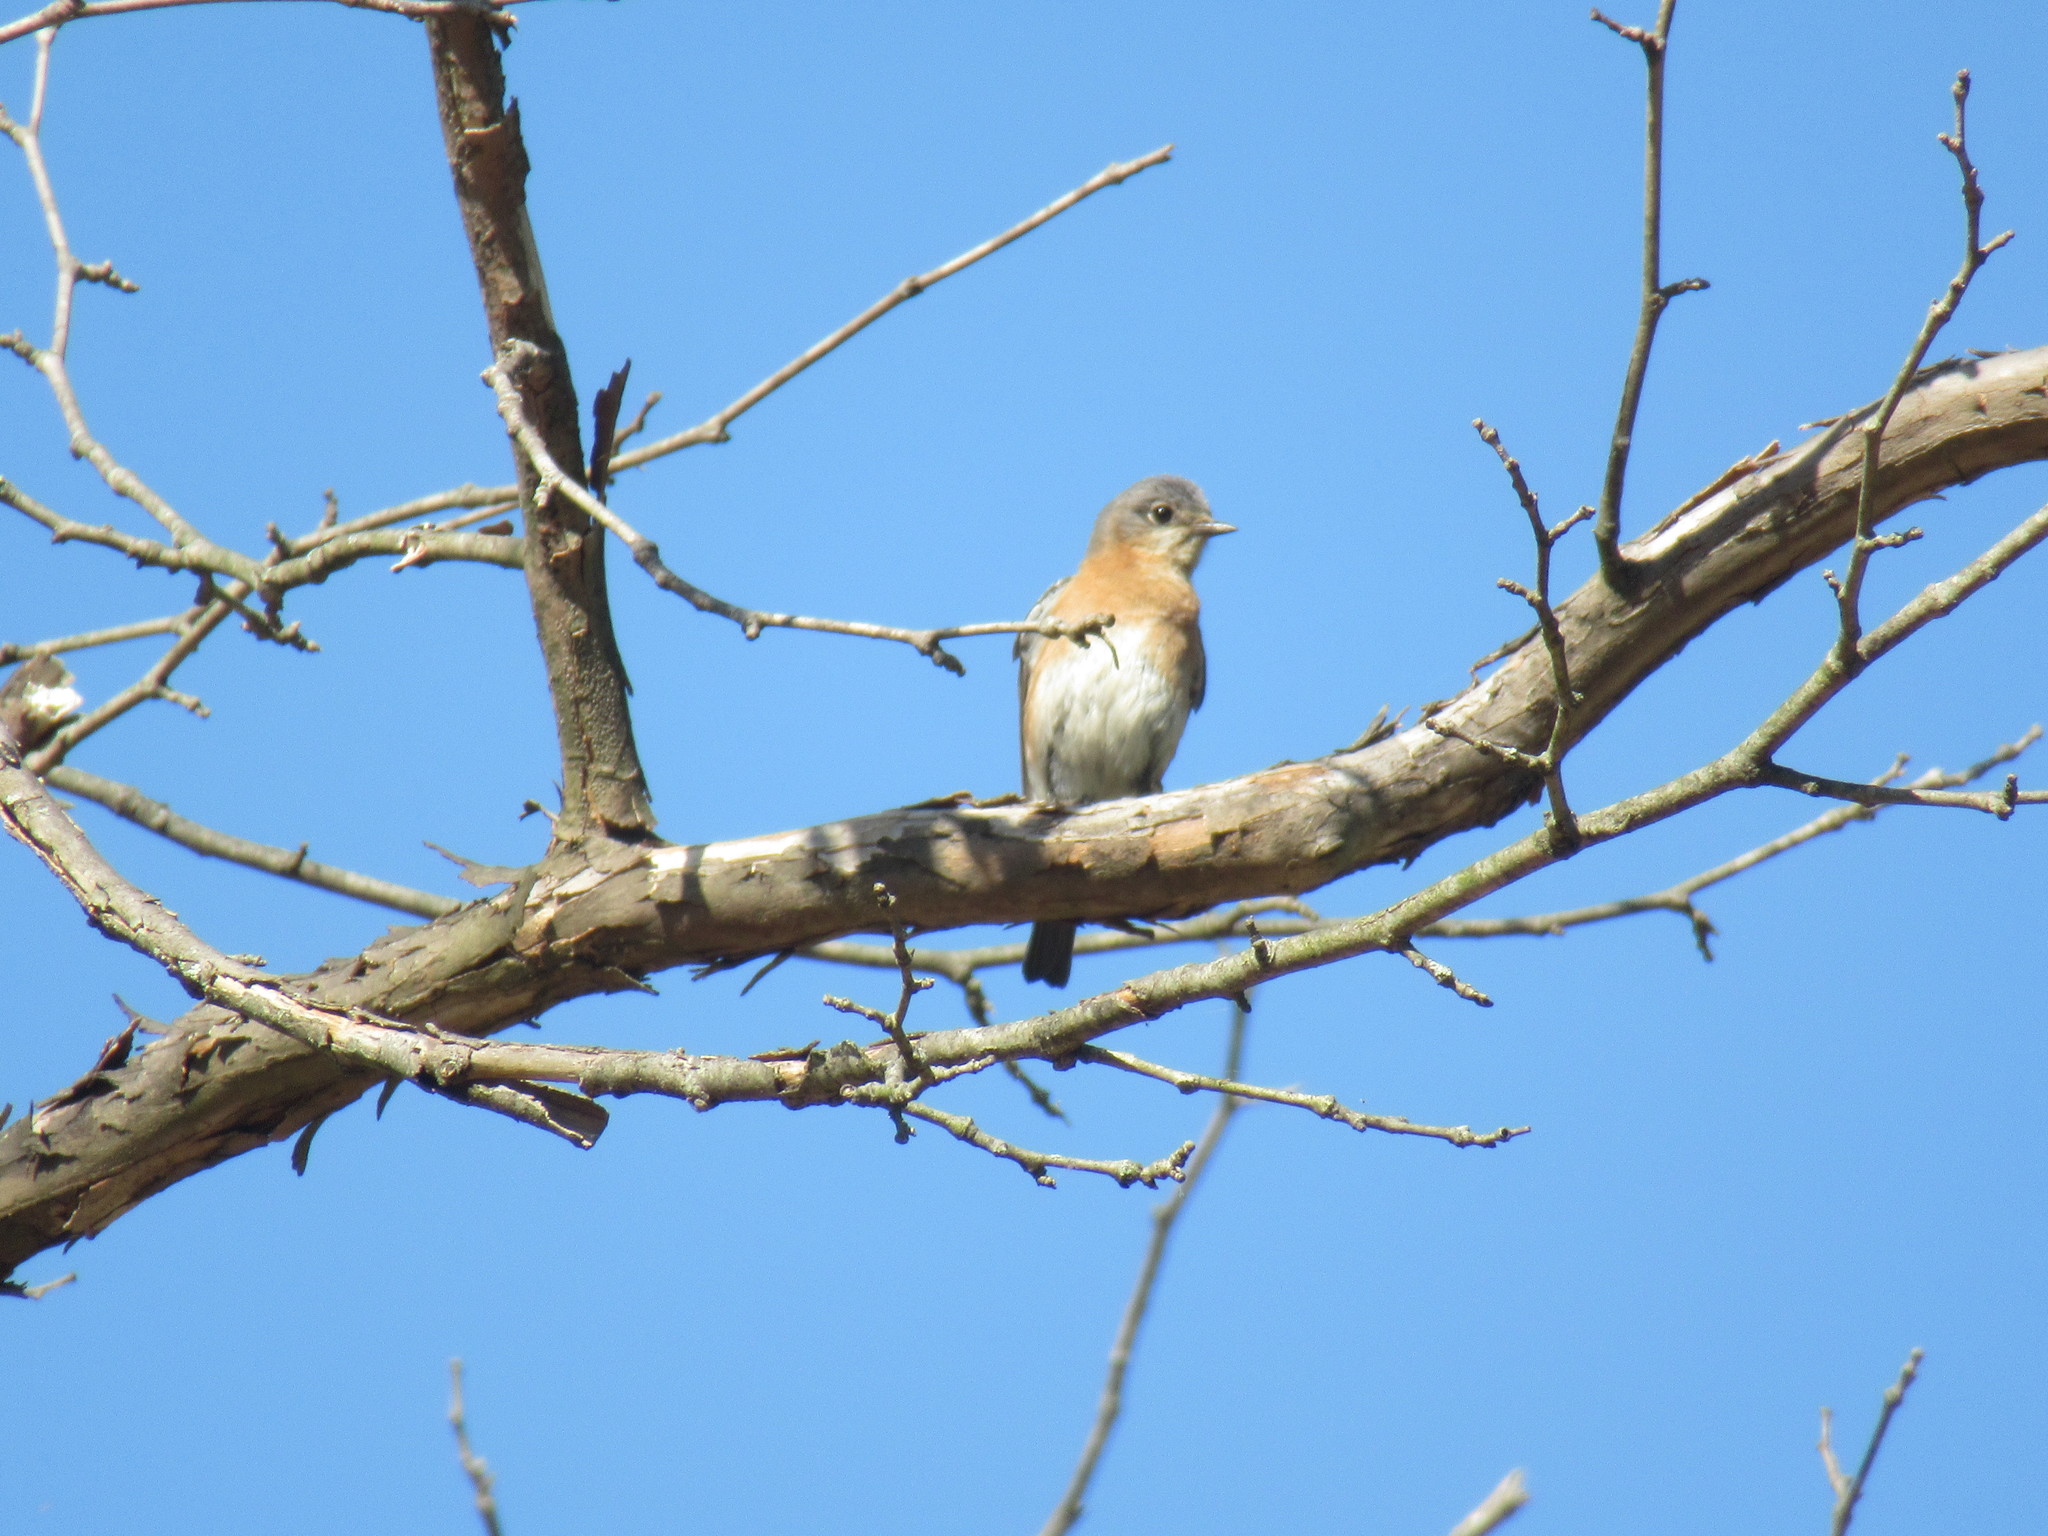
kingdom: Animalia
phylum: Chordata
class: Aves
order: Passeriformes
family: Turdidae
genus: Sialia
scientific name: Sialia sialis
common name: Eastern bluebird
